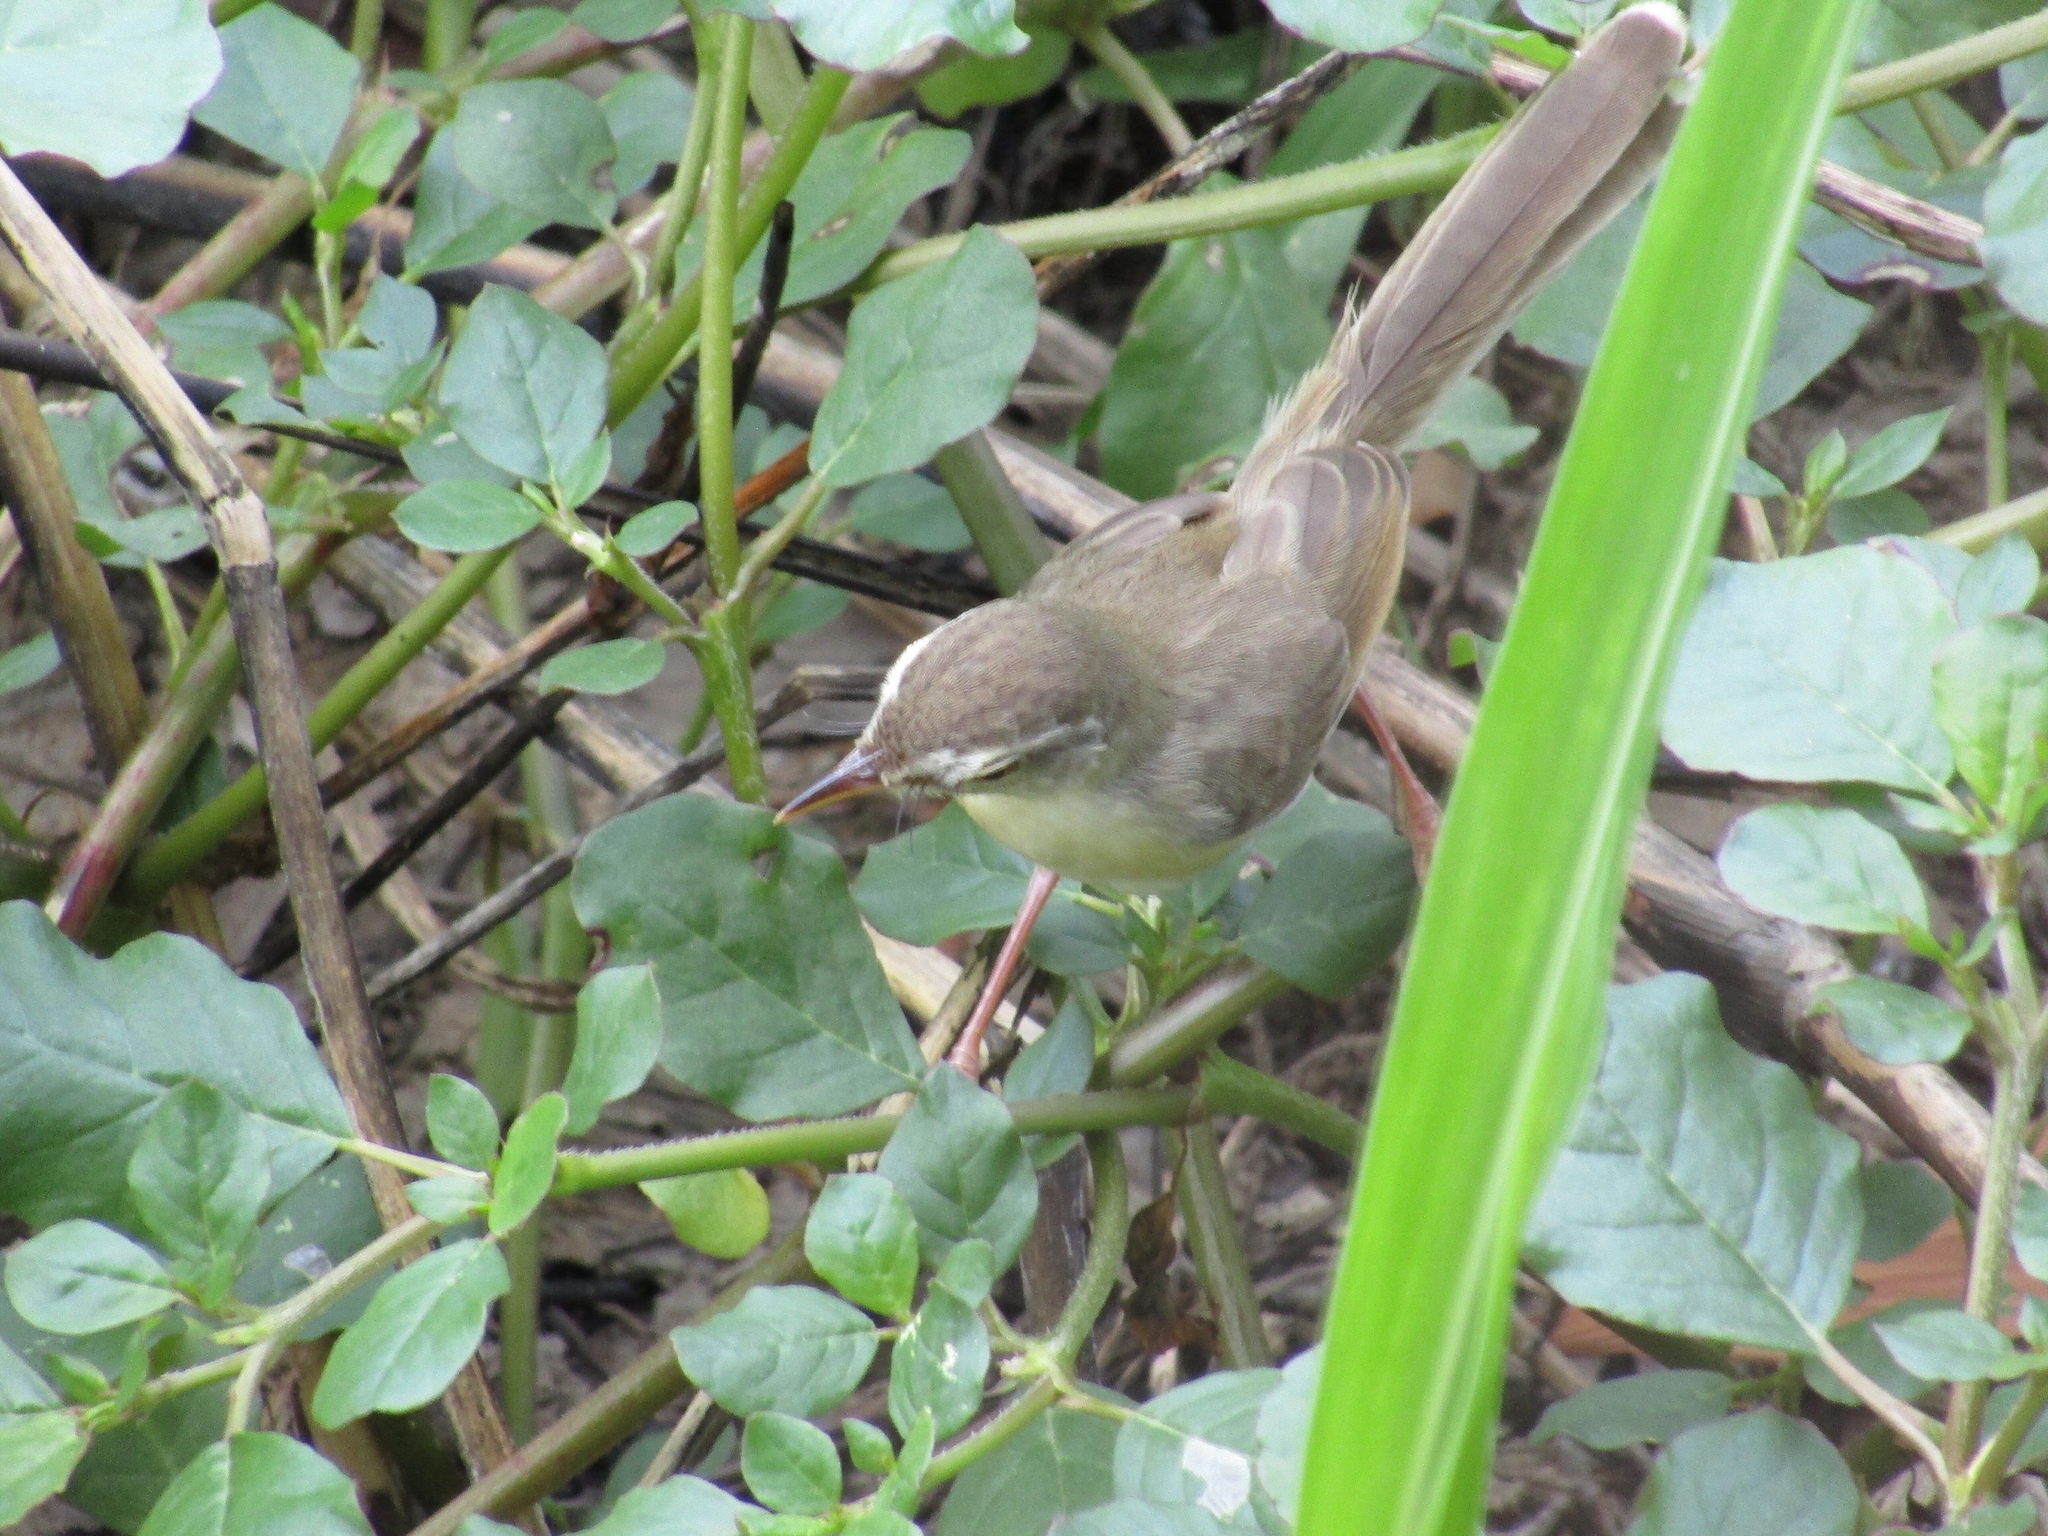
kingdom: Animalia
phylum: Chordata
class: Aves
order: Passeriformes
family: Cisticolidae
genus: Prinia
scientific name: Prinia inornata
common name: Plain prinia
